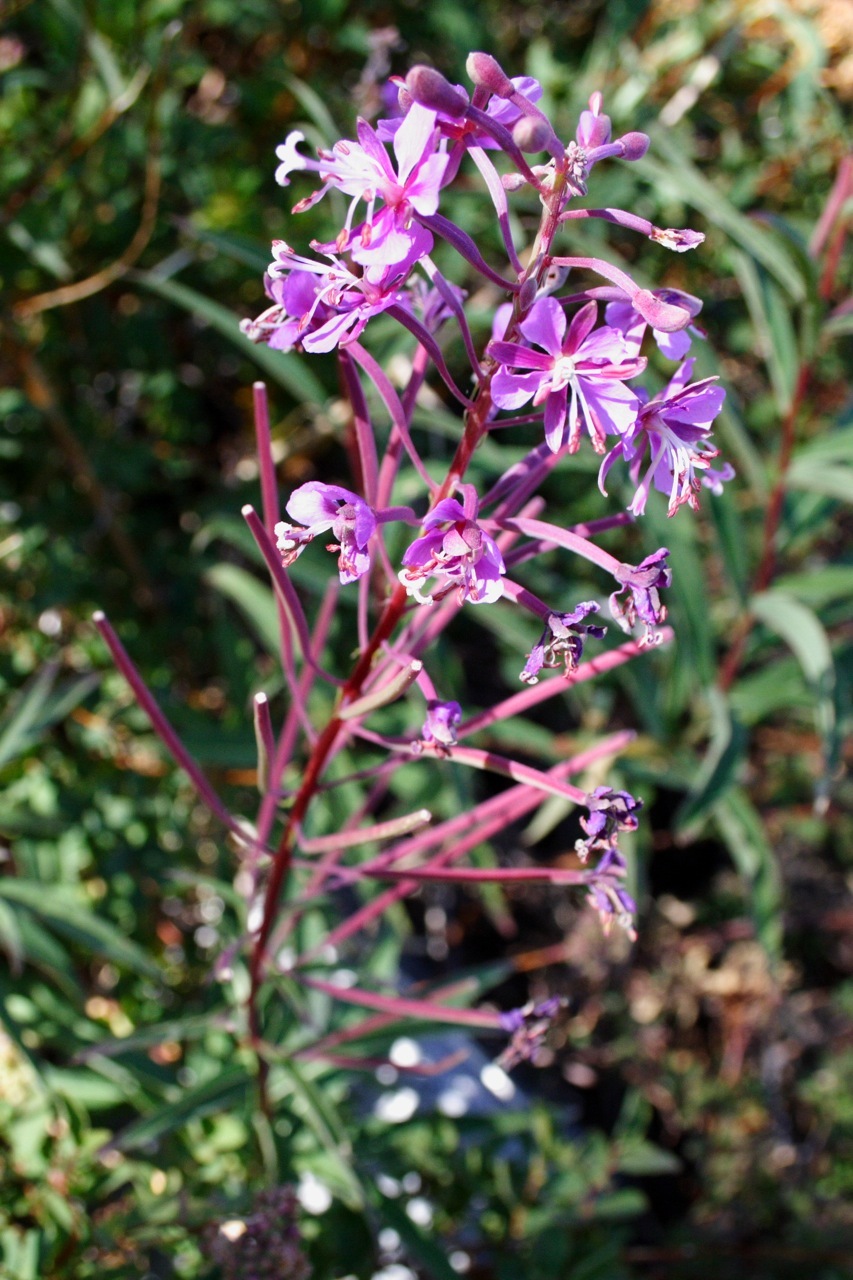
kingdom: Plantae
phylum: Tracheophyta
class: Magnoliopsida
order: Myrtales
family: Onagraceae
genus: Chamaenerion
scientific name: Chamaenerion angustifolium
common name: Fireweed
